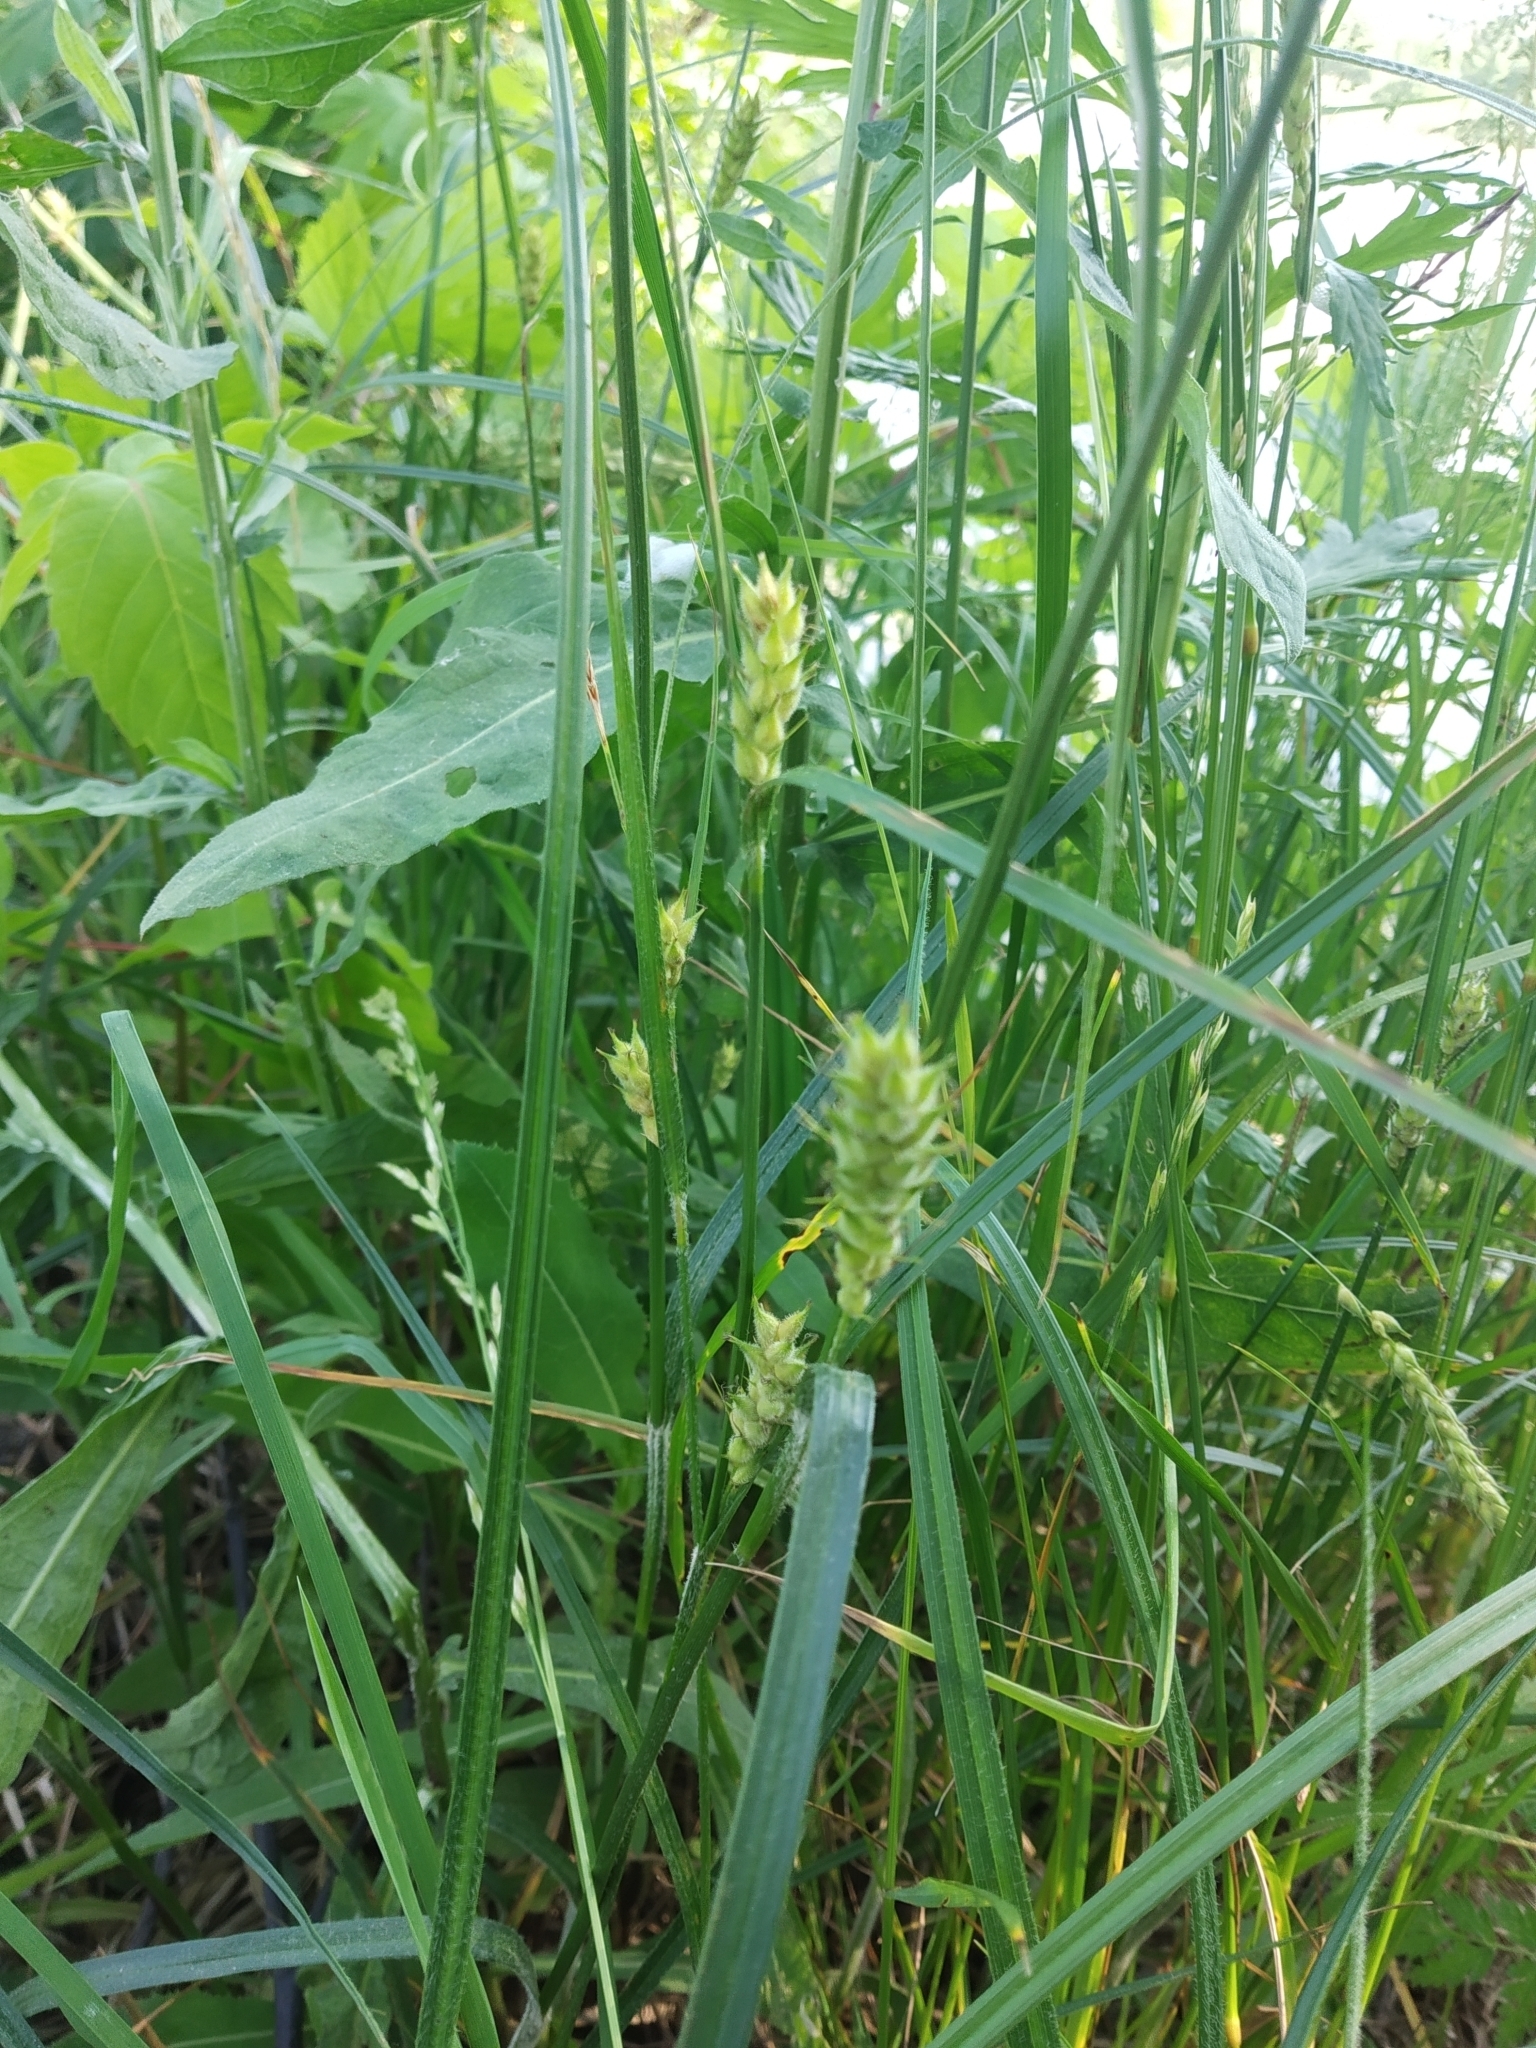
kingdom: Plantae
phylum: Tracheophyta
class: Liliopsida
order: Poales
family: Cyperaceae
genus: Carex
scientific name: Carex hirta
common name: Hairy sedge
